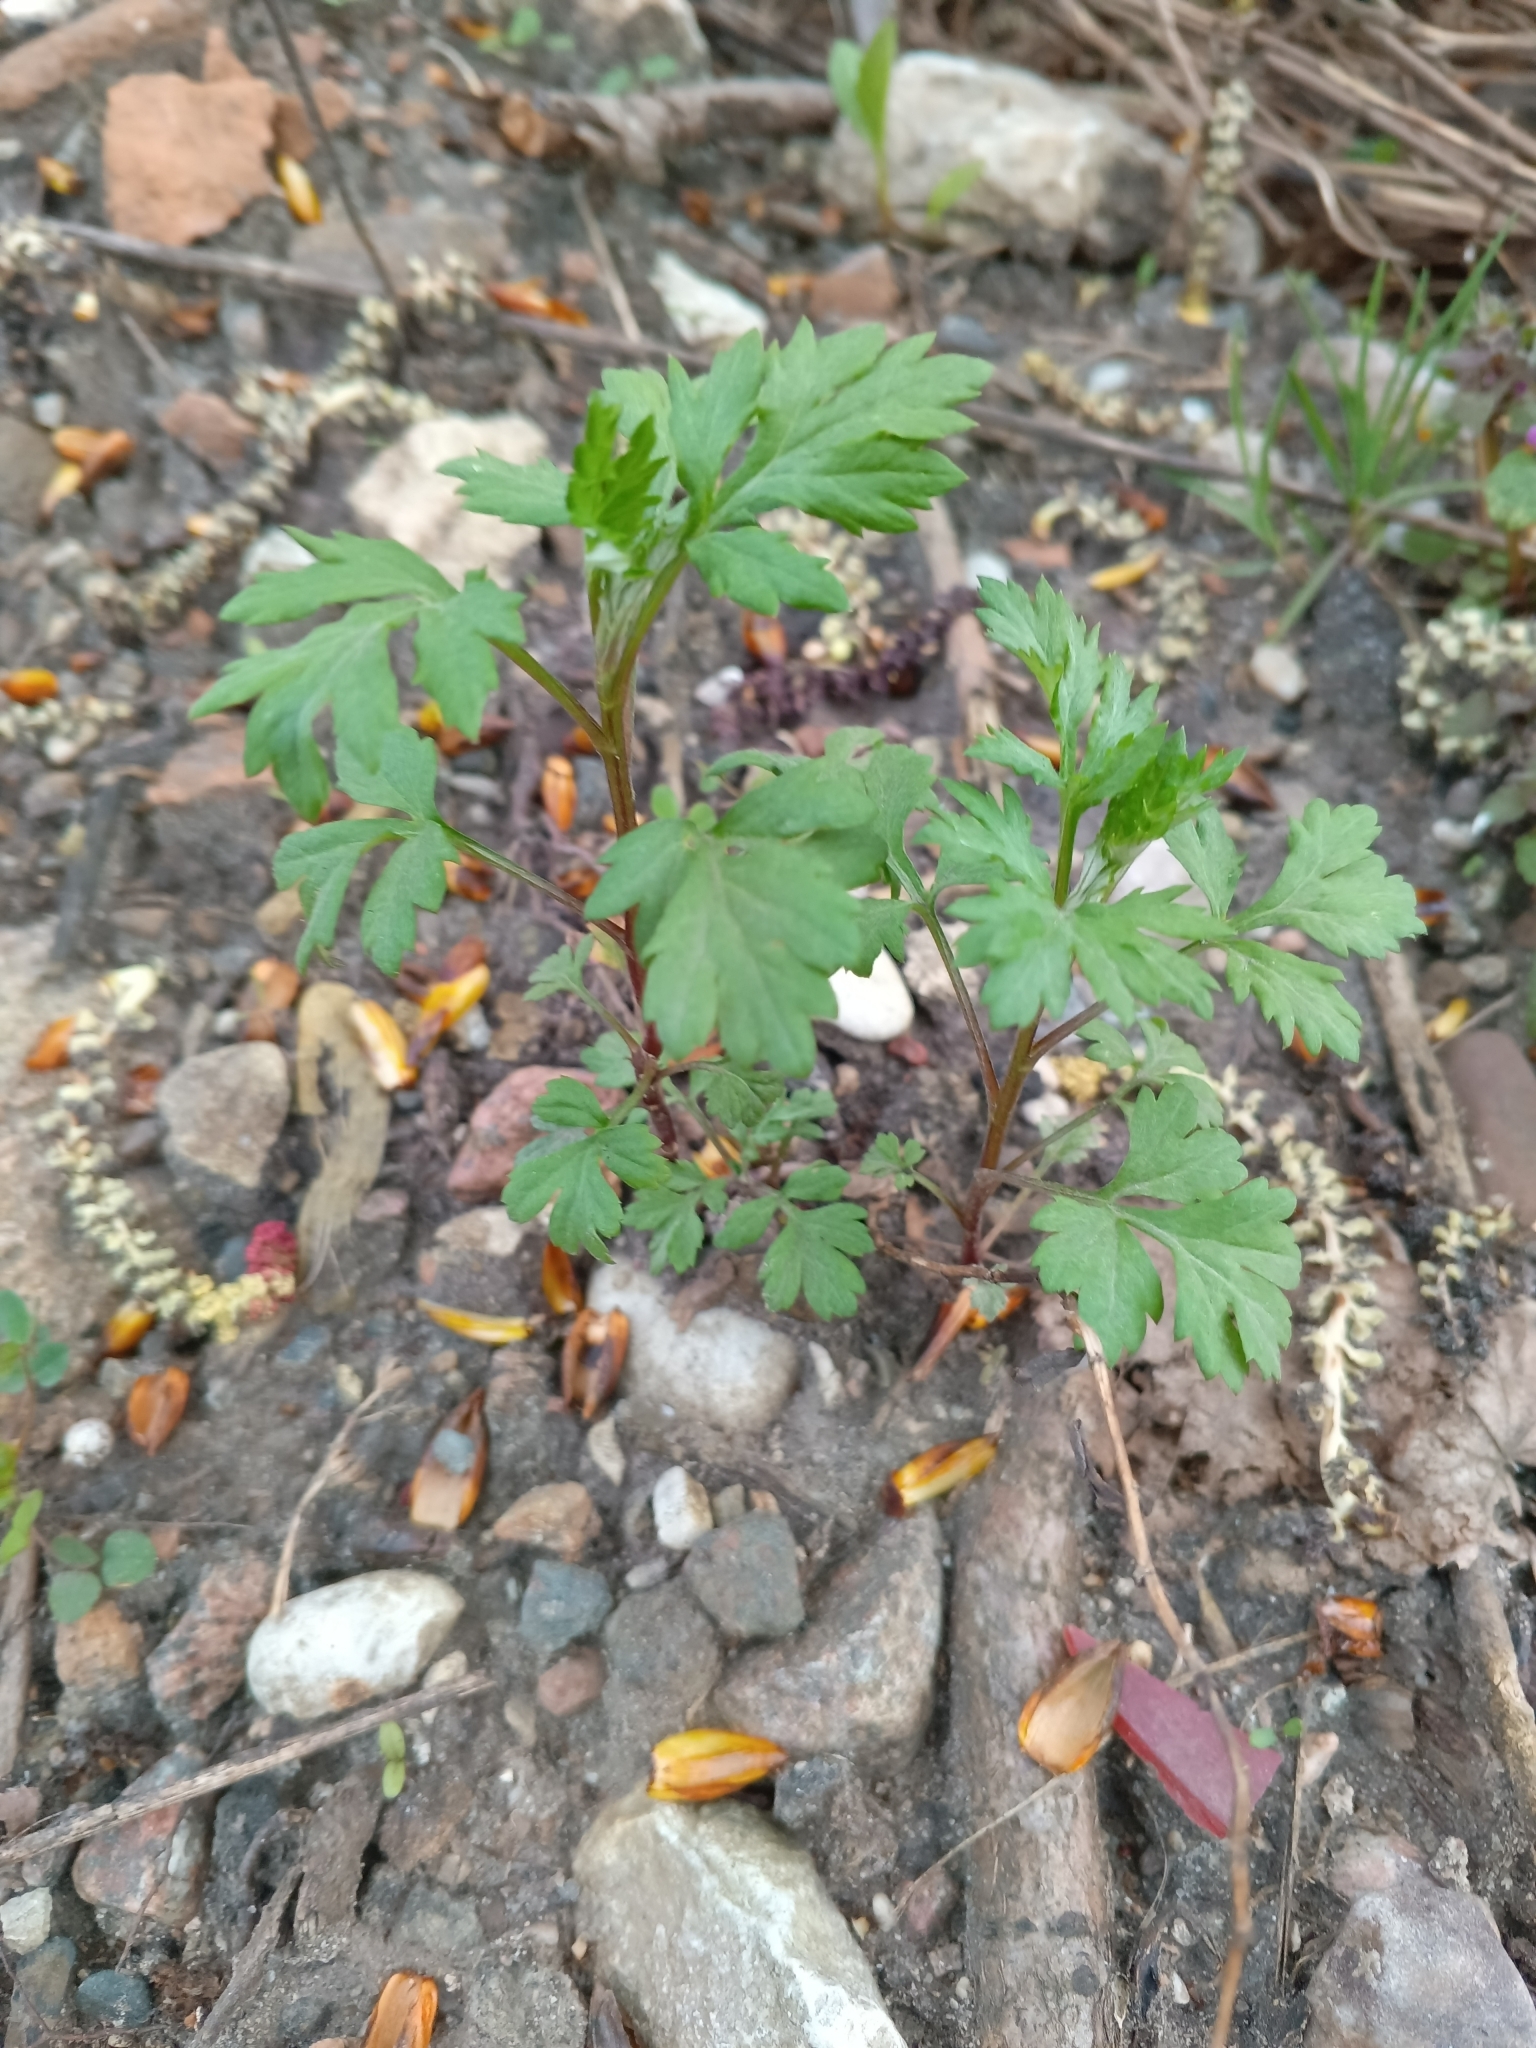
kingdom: Plantae
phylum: Tracheophyta
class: Magnoliopsida
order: Asterales
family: Asteraceae
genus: Artemisia
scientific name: Artemisia vulgaris
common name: Mugwort
